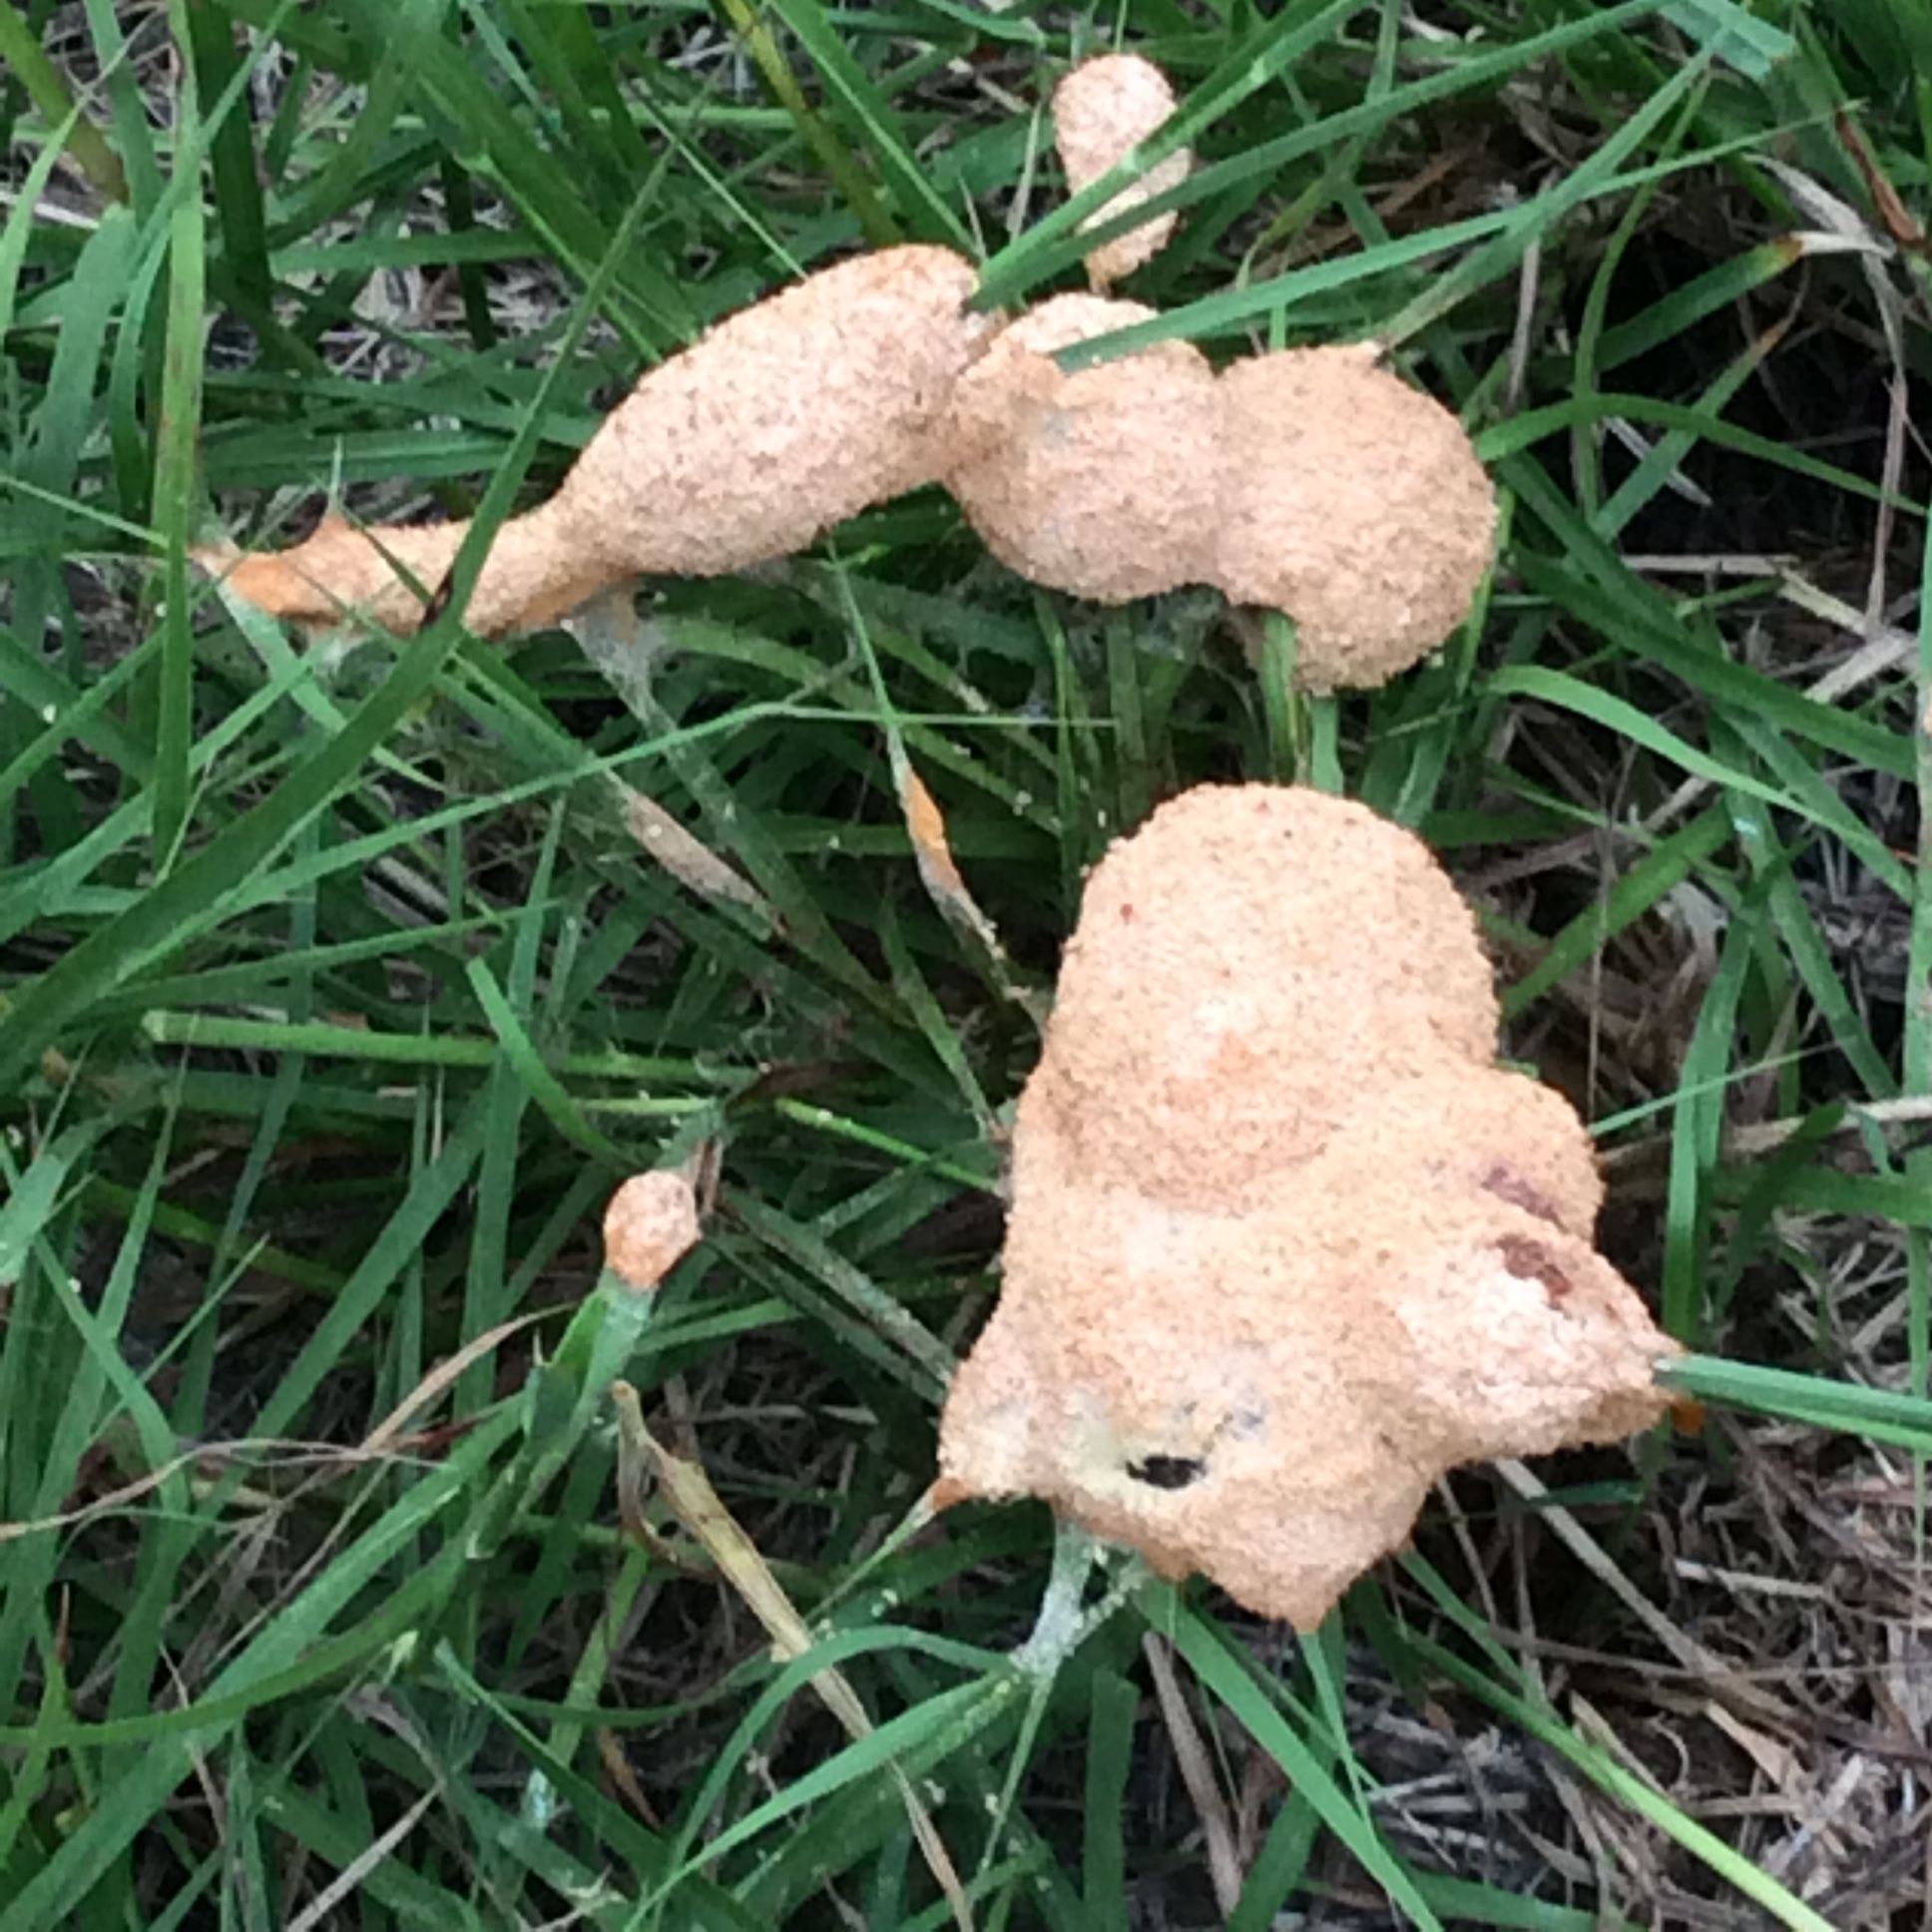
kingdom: Protozoa
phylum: Mycetozoa
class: Myxomycetes
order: Physarales
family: Physaraceae
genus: Fuligo
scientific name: Fuligo septica
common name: Dog vomit slime mold
